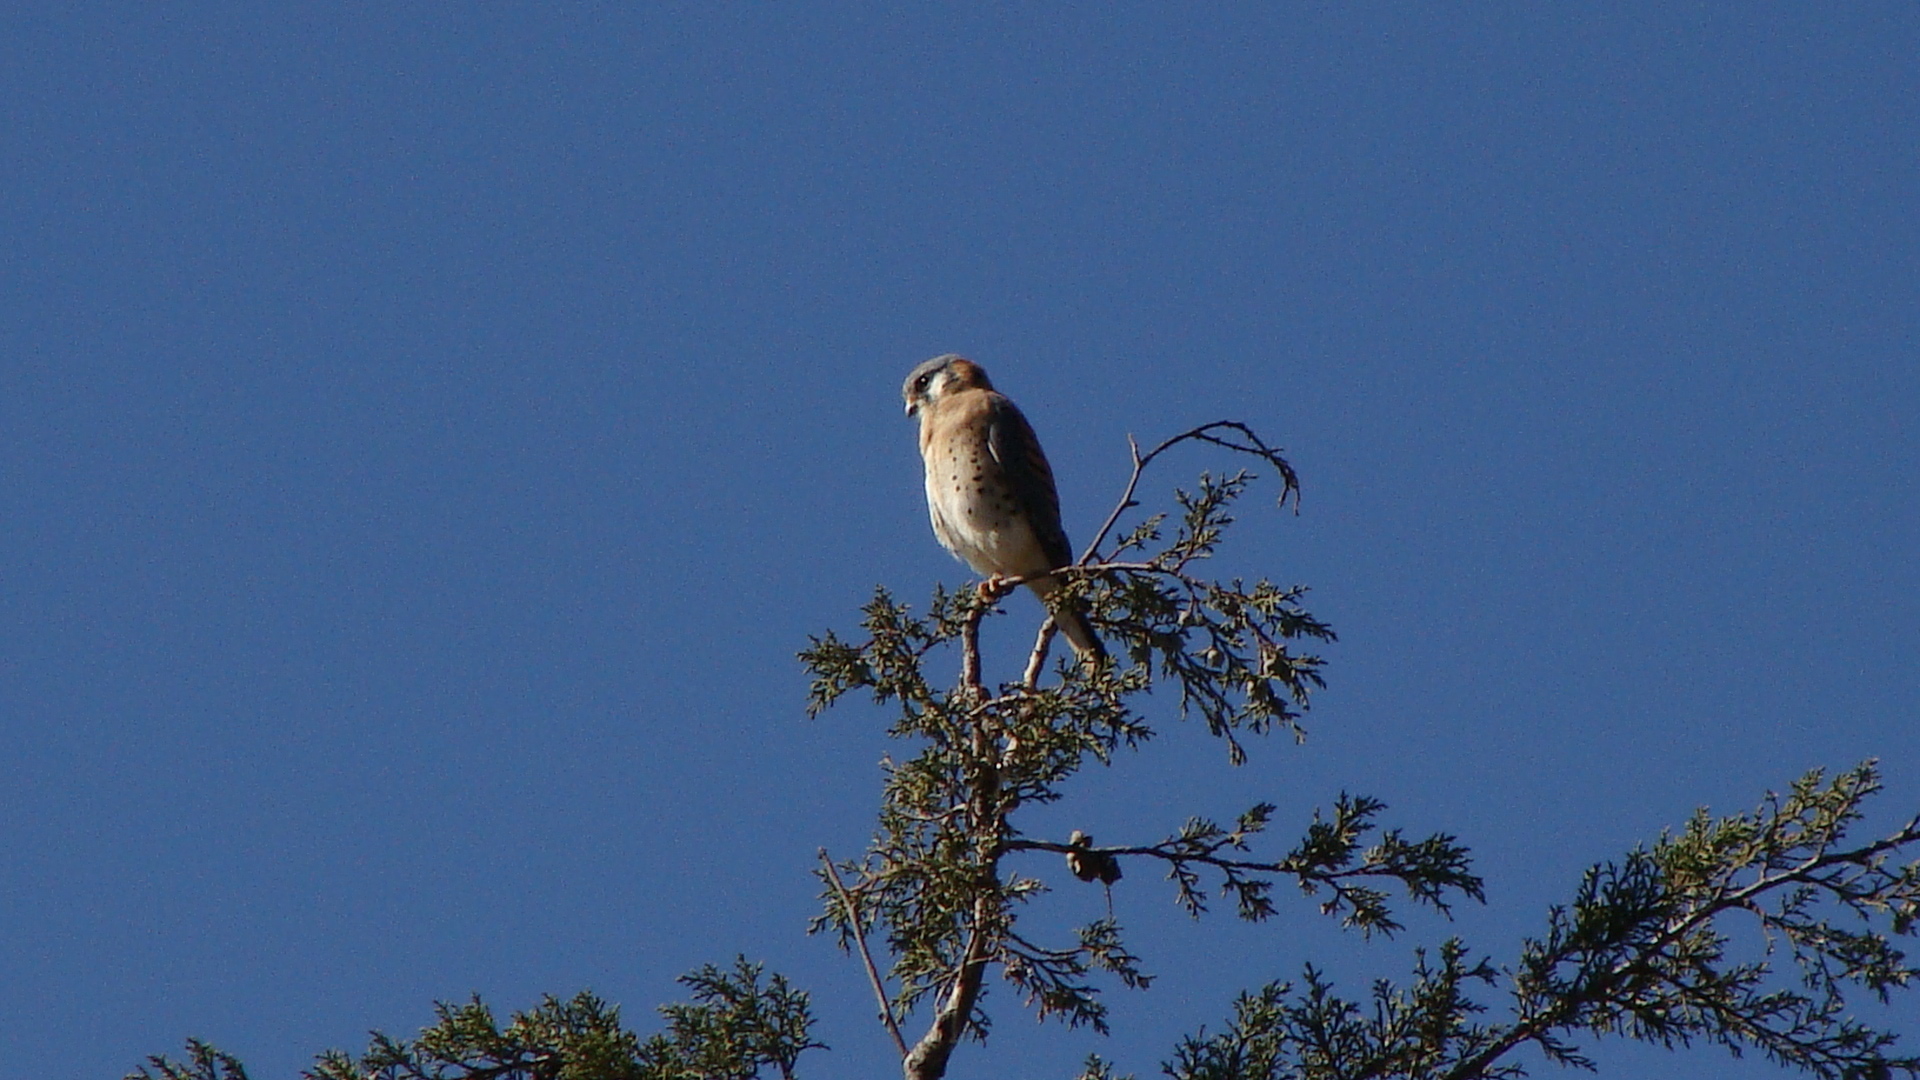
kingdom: Animalia
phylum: Chordata
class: Aves
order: Falconiformes
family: Falconidae
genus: Falco
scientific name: Falco sparverius
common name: American kestrel
